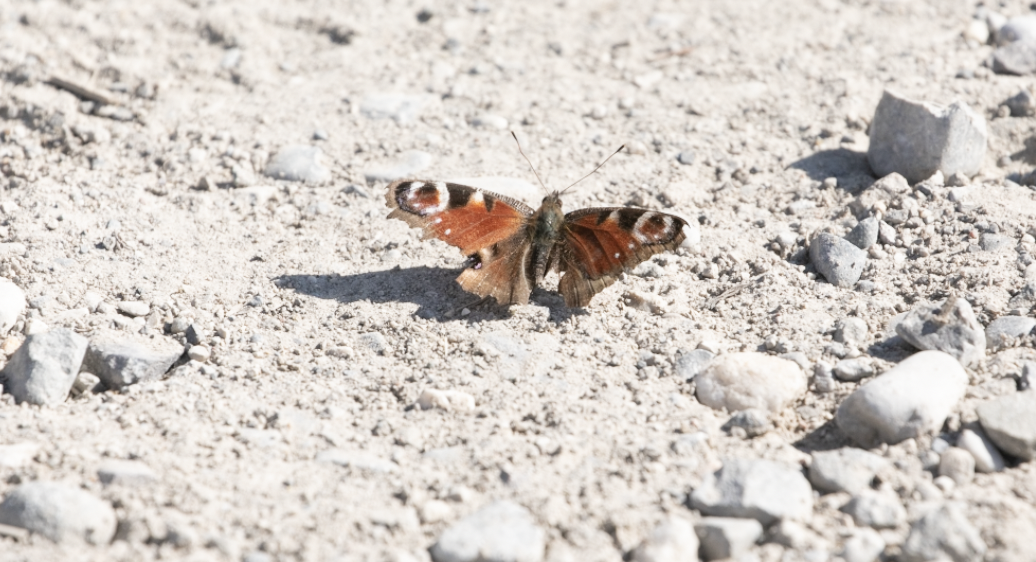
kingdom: Animalia
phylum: Arthropoda
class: Insecta
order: Lepidoptera
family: Nymphalidae
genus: Aglais
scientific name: Aglais io
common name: Peacock
